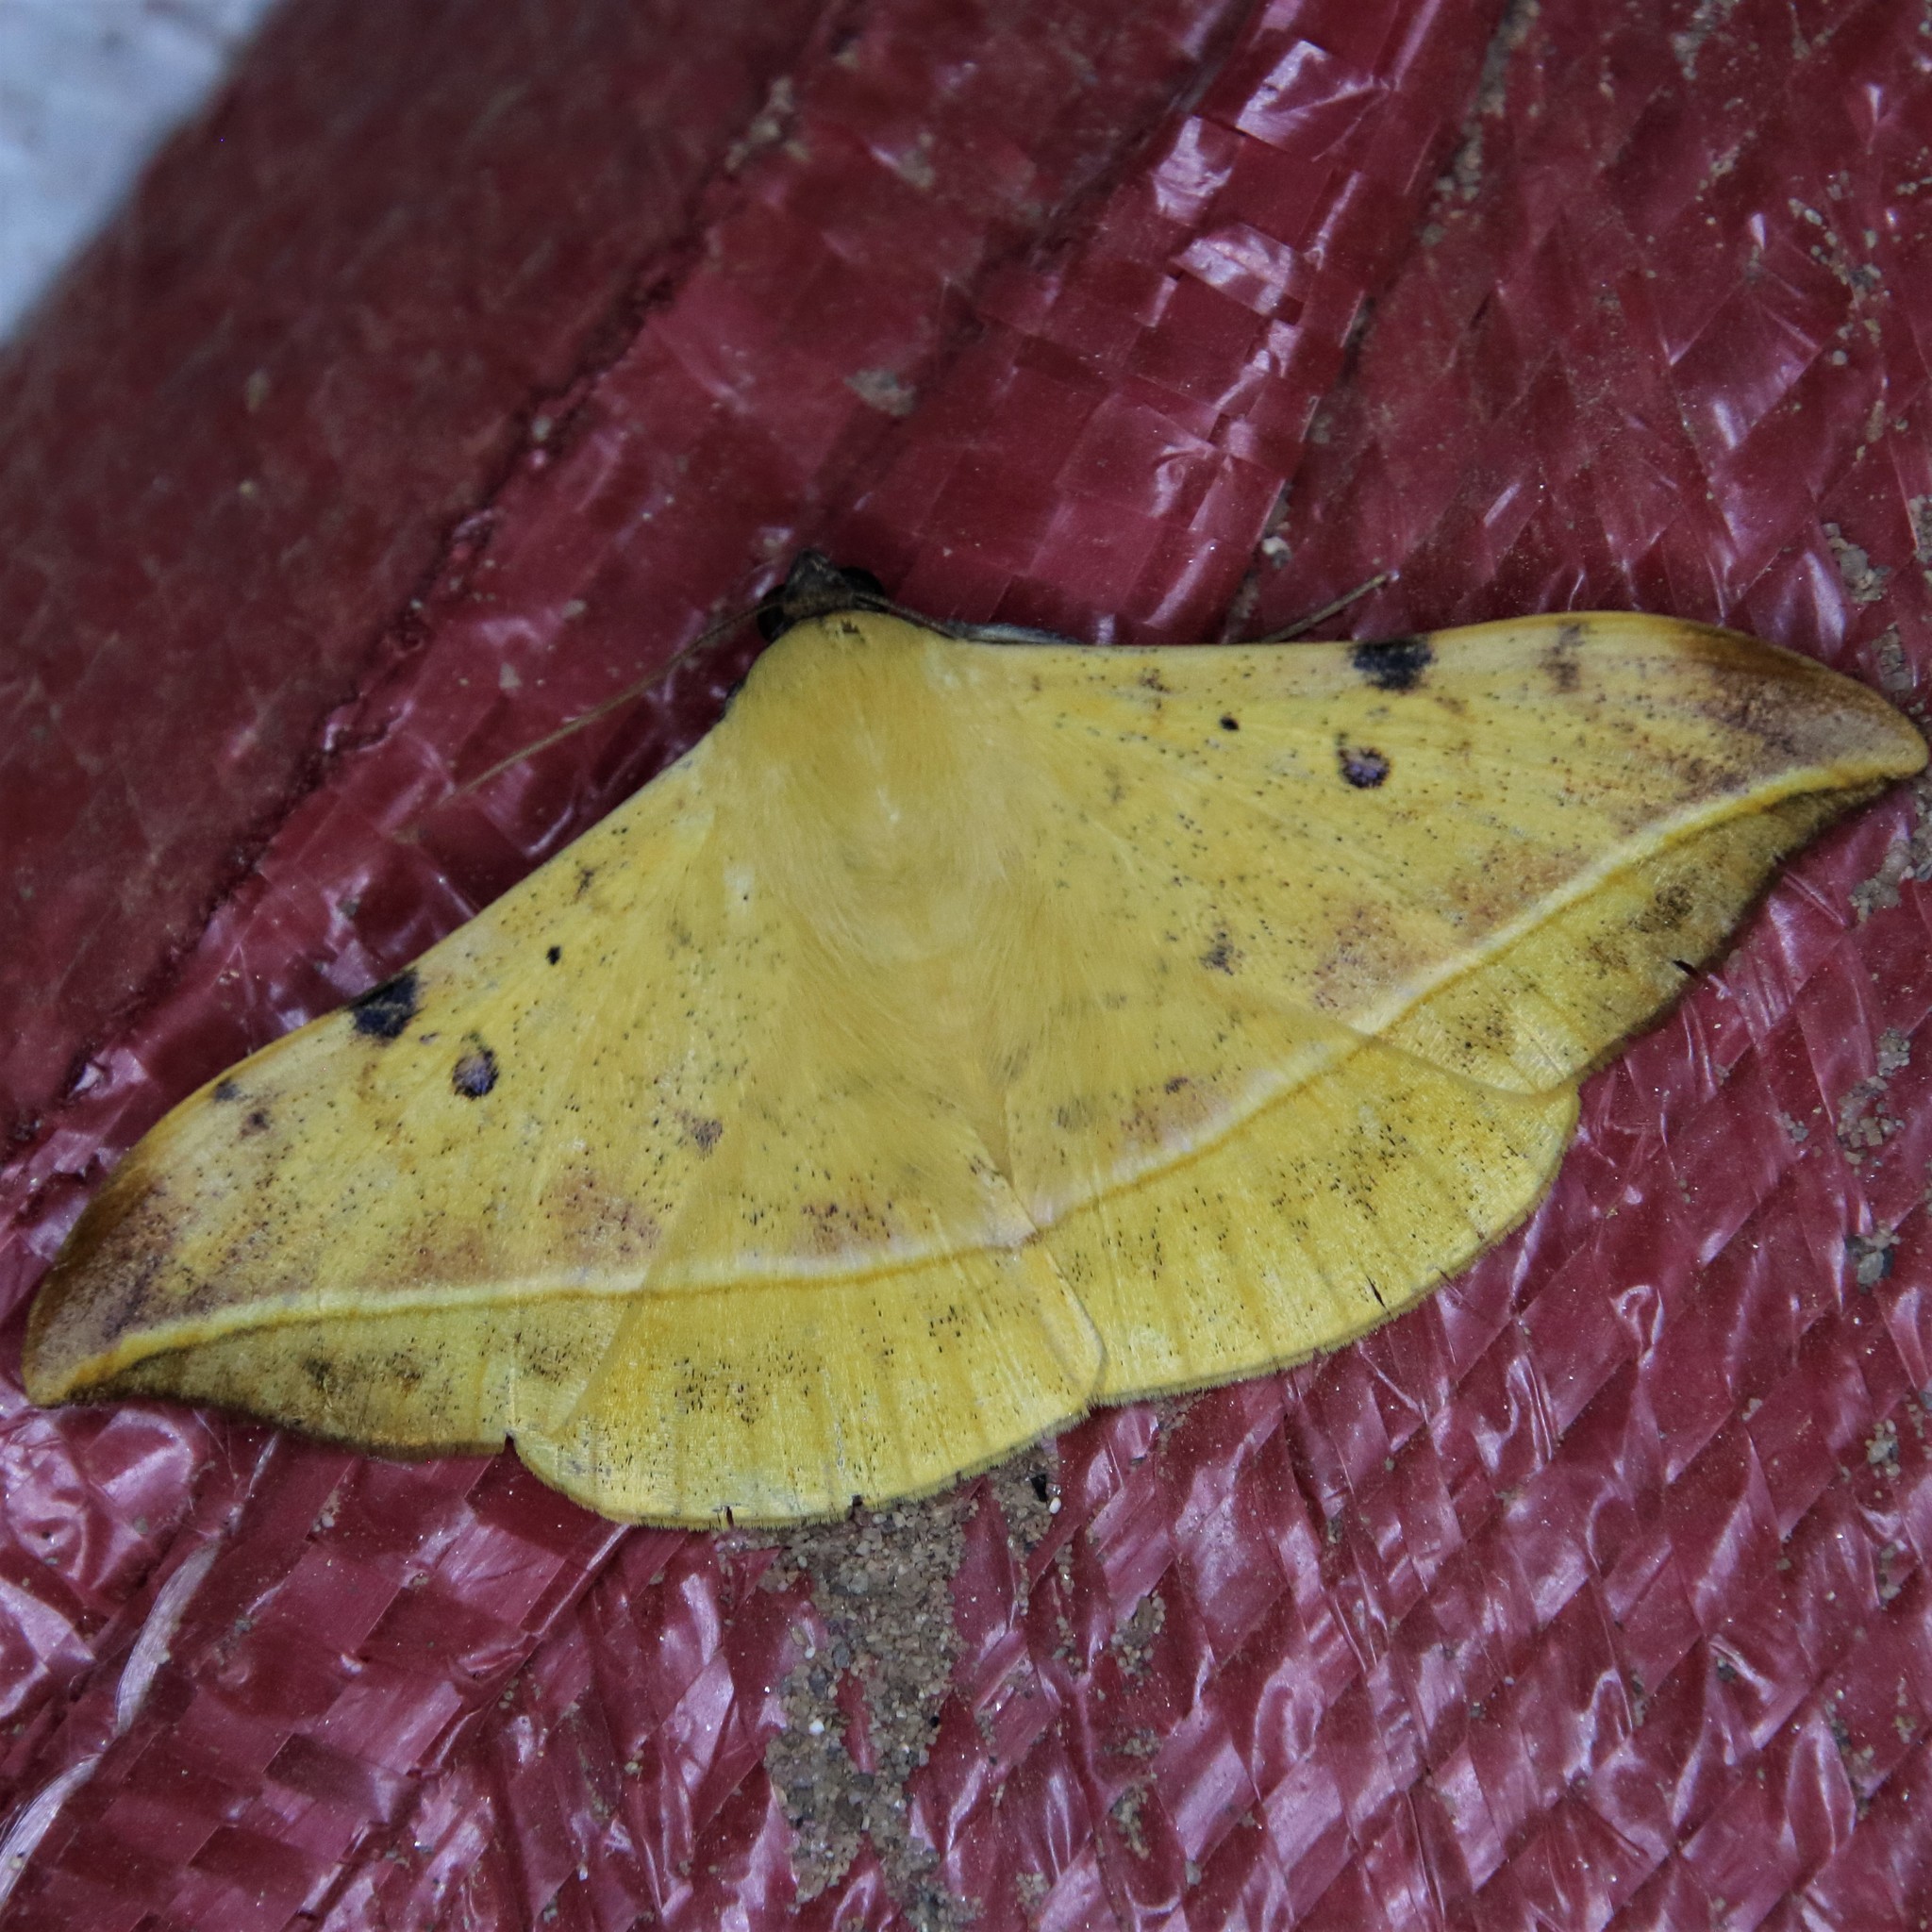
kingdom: Animalia
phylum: Arthropoda
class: Insecta
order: Lepidoptera
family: Erebidae
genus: Hamodes
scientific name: Hamodes propitia
